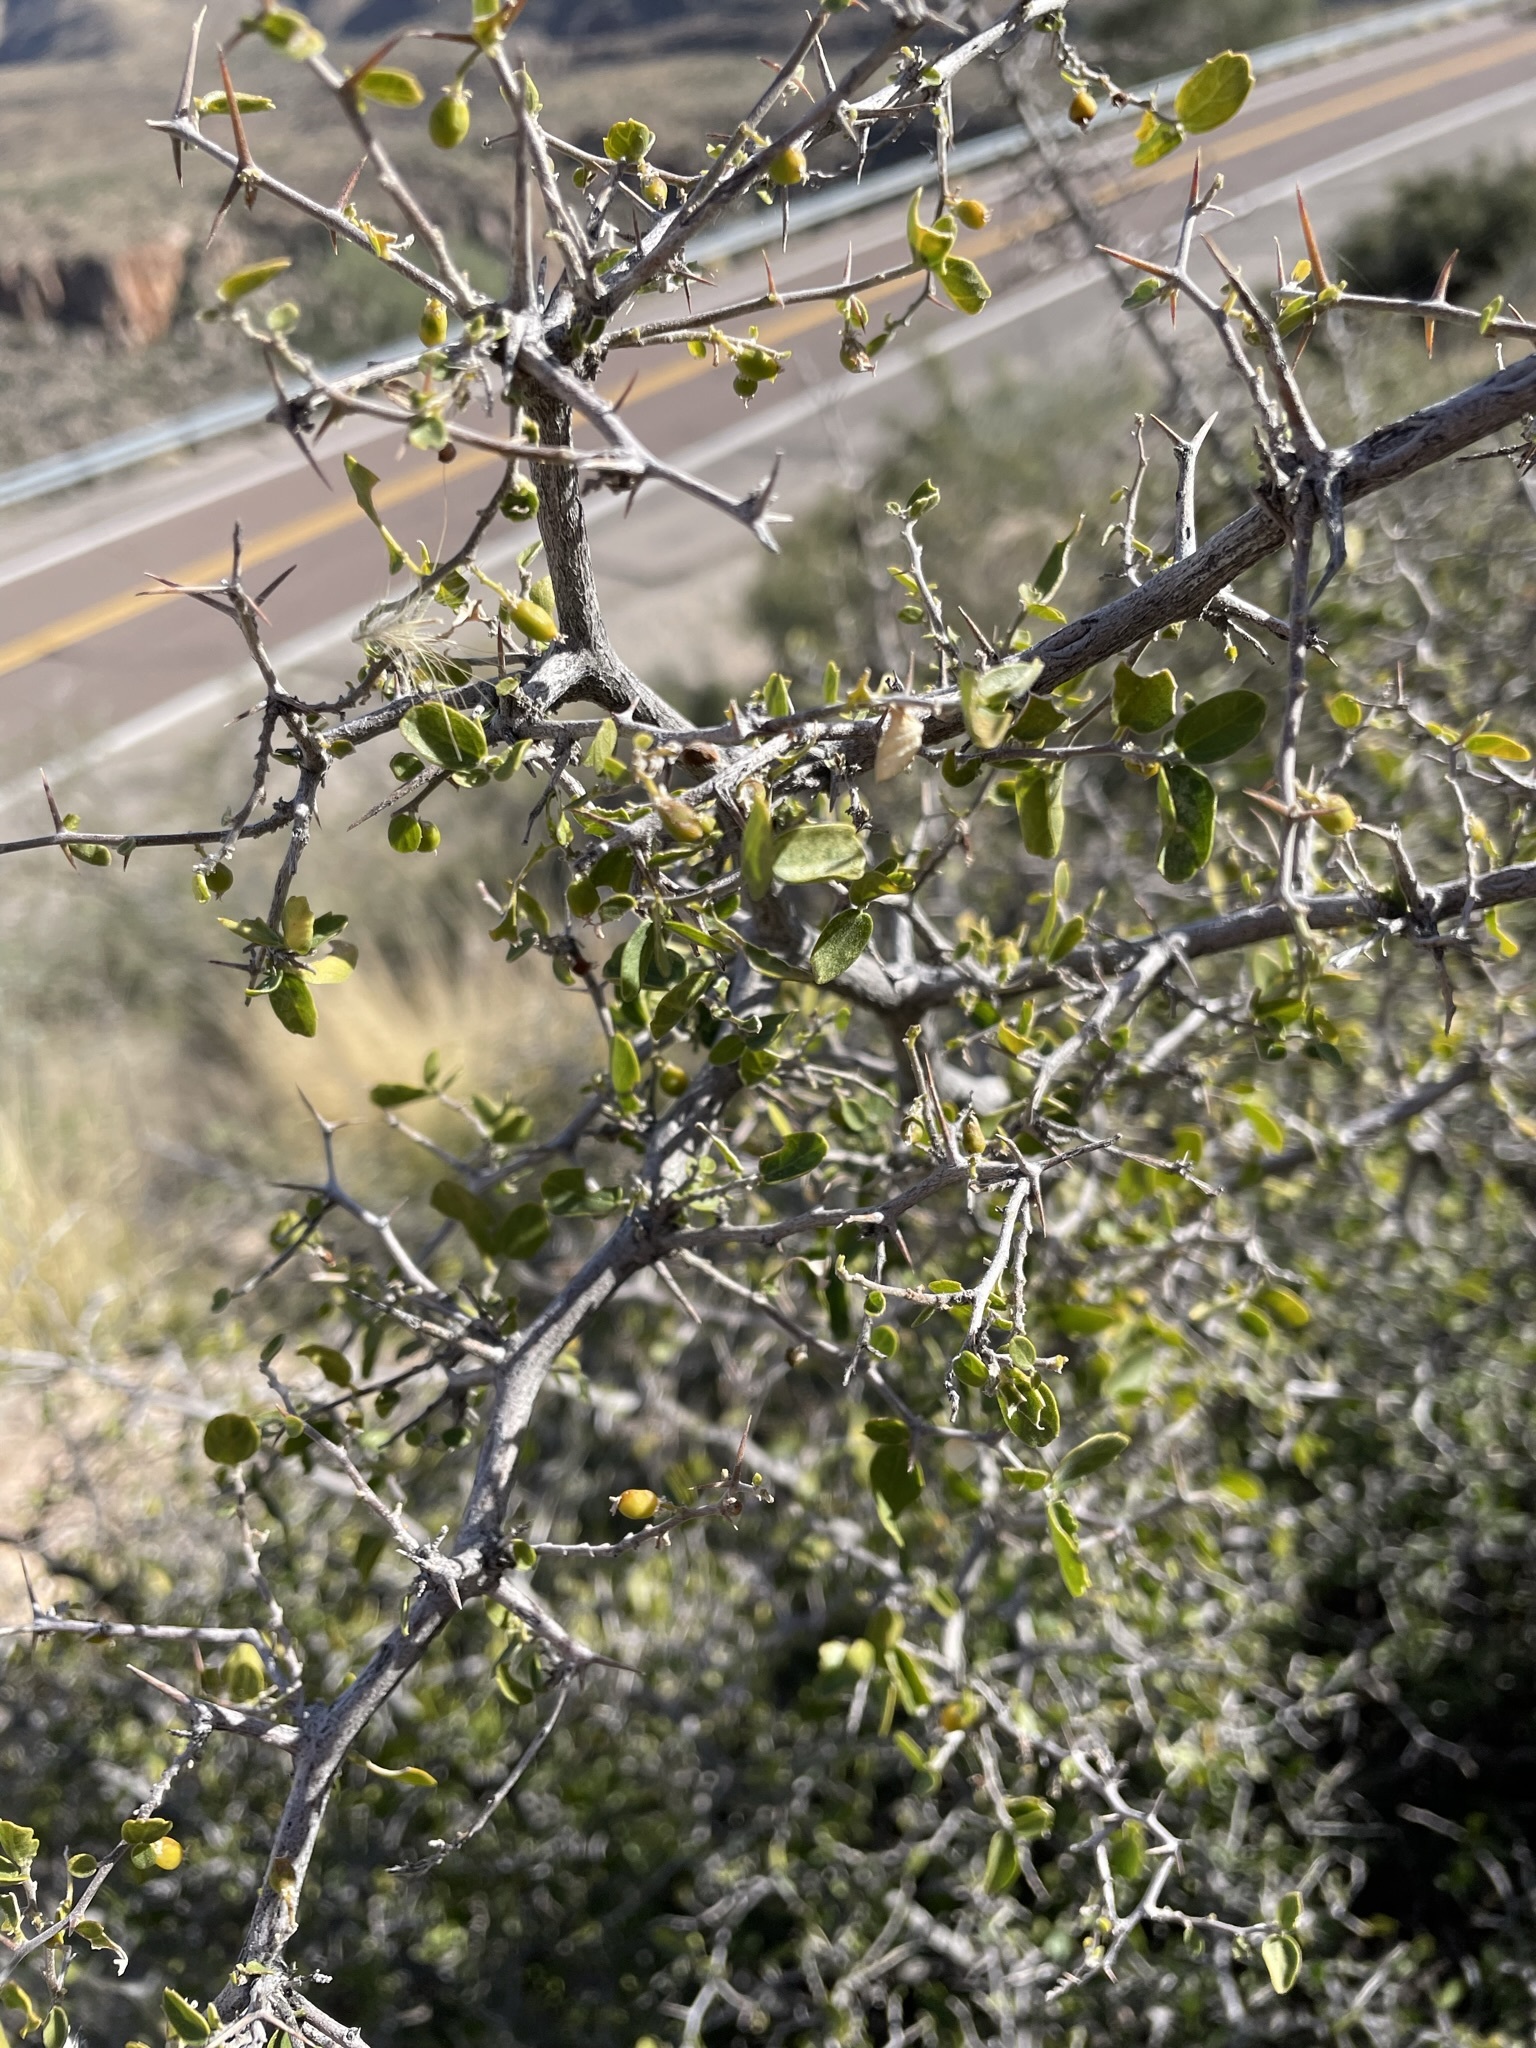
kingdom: Plantae
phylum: Tracheophyta
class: Magnoliopsida
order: Rosales
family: Cannabaceae
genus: Celtis
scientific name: Celtis pallida
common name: Desert hackberry
